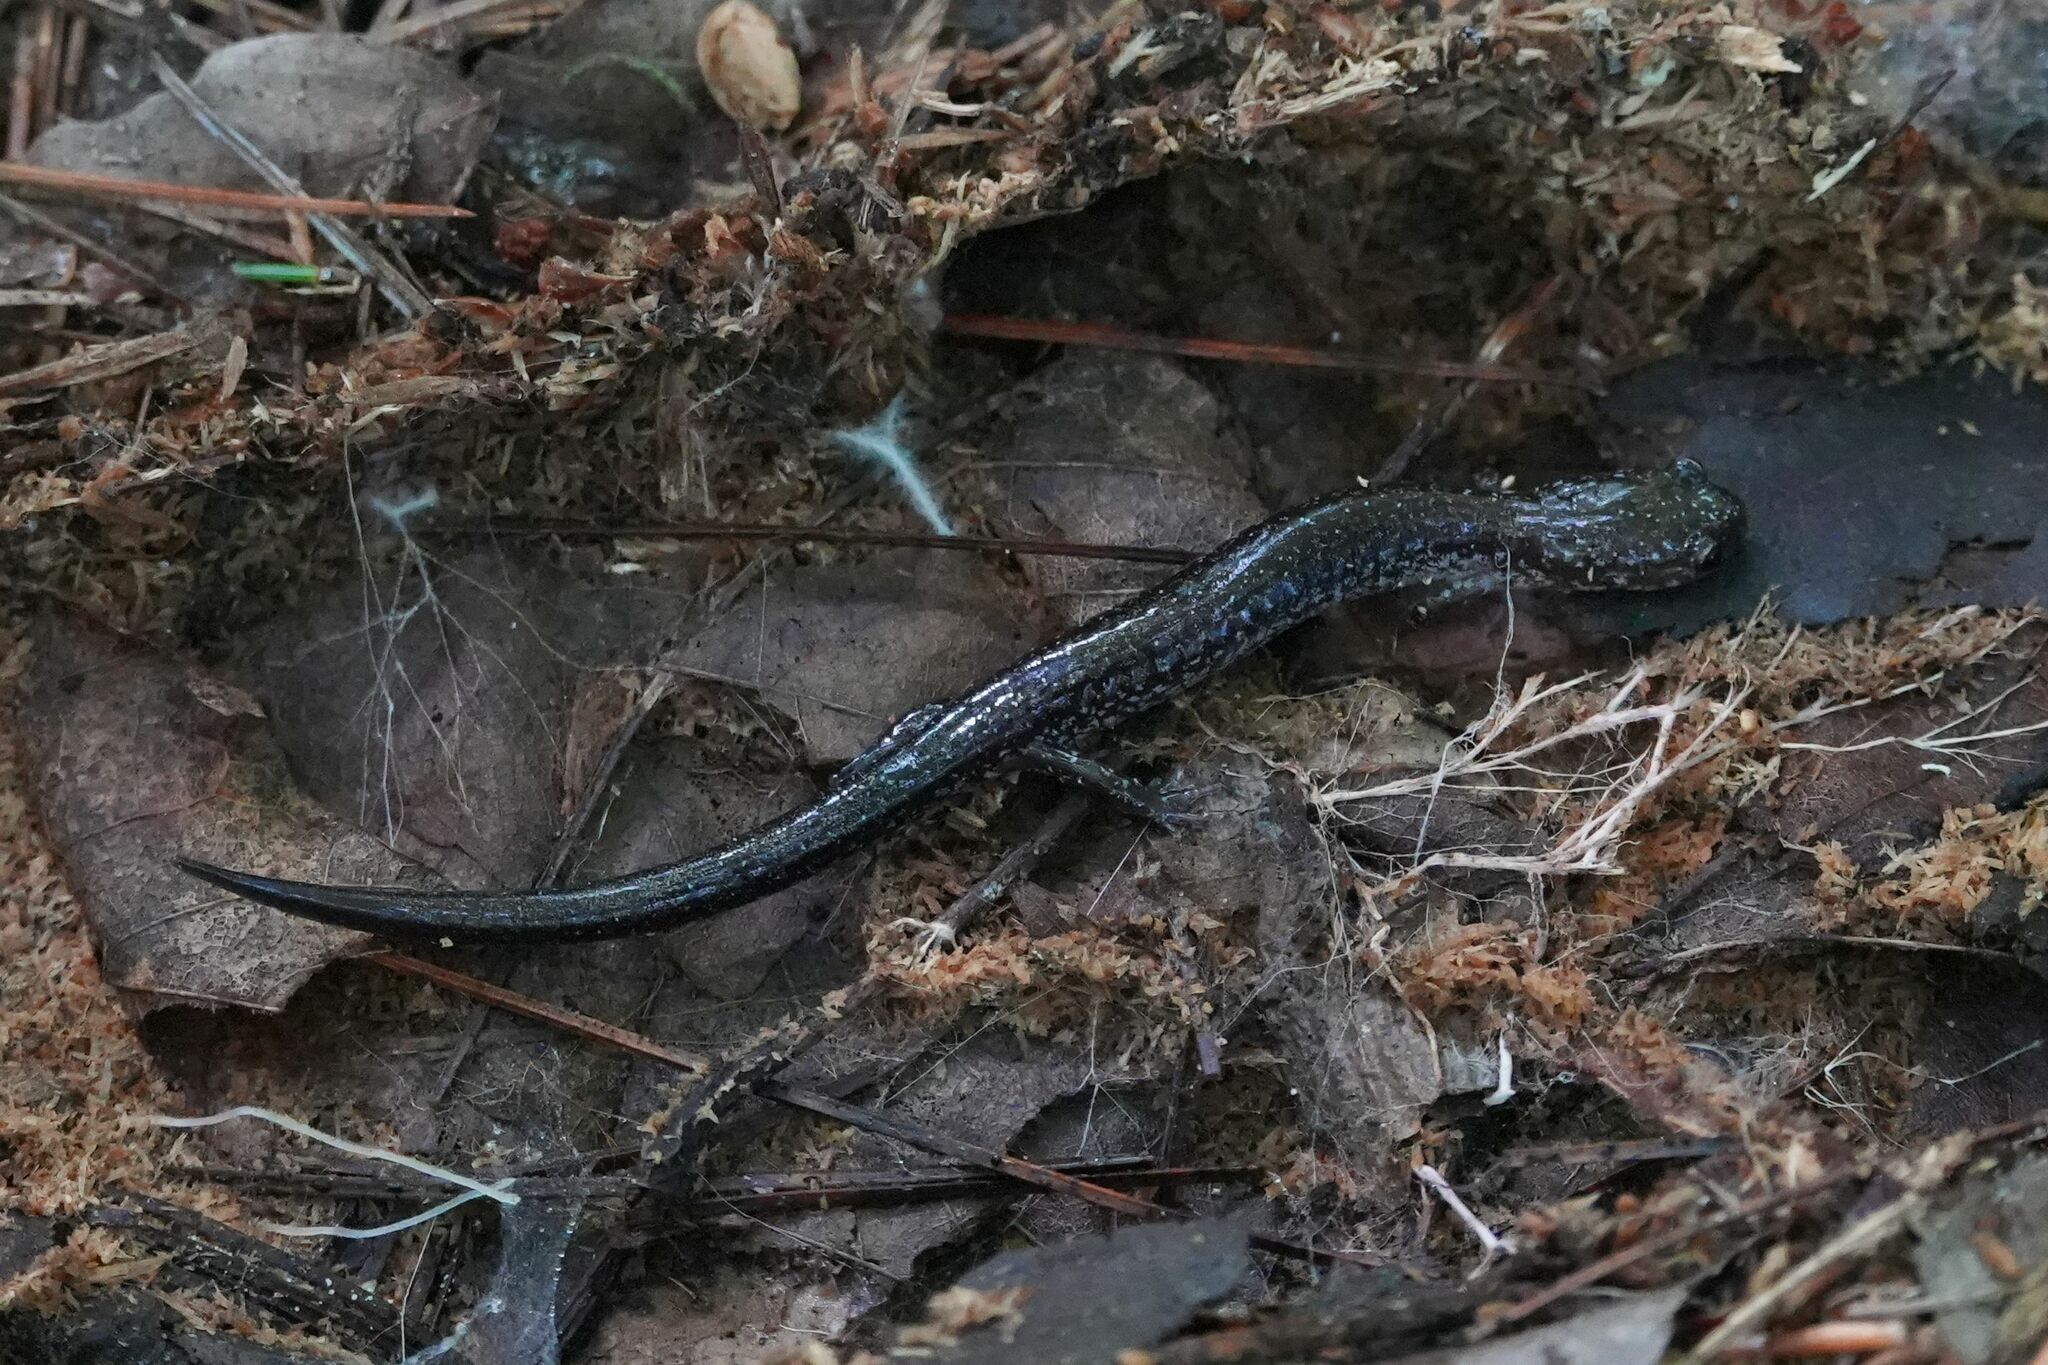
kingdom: Animalia
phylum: Chordata
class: Amphibia
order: Caudata
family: Plethodontidae
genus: Plethodon
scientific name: Plethodon cinereus
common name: Redback salamander
